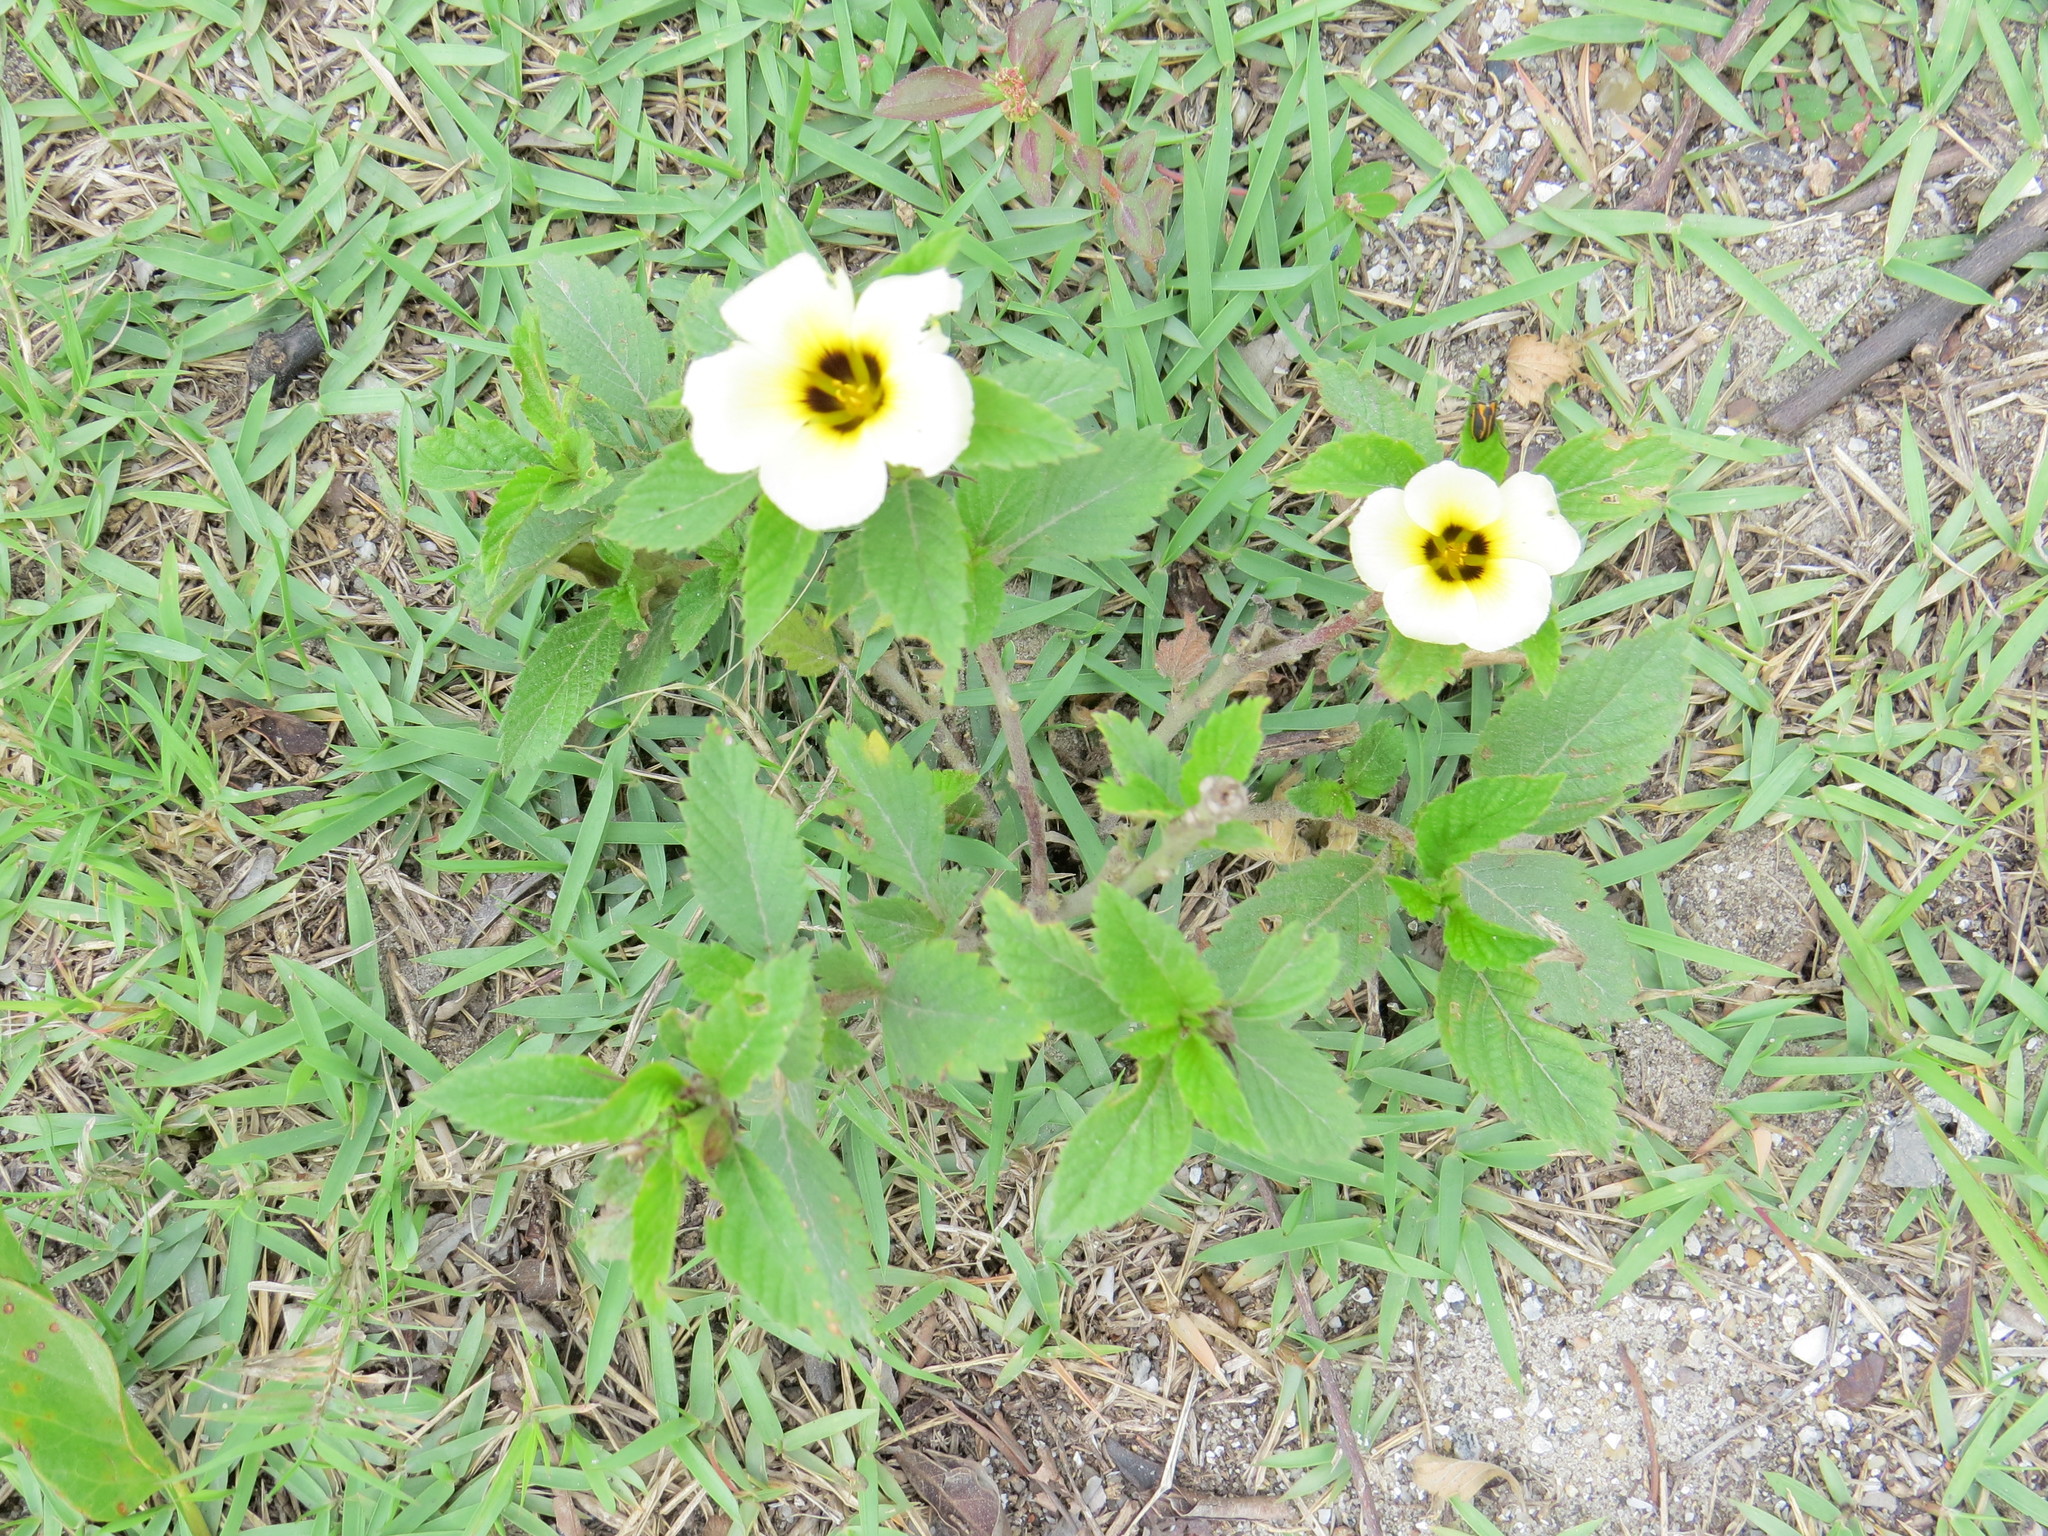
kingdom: Plantae
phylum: Tracheophyta
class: Magnoliopsida
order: Malpighiales
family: Turneraceae
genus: Turnera
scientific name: Turnera subulata
